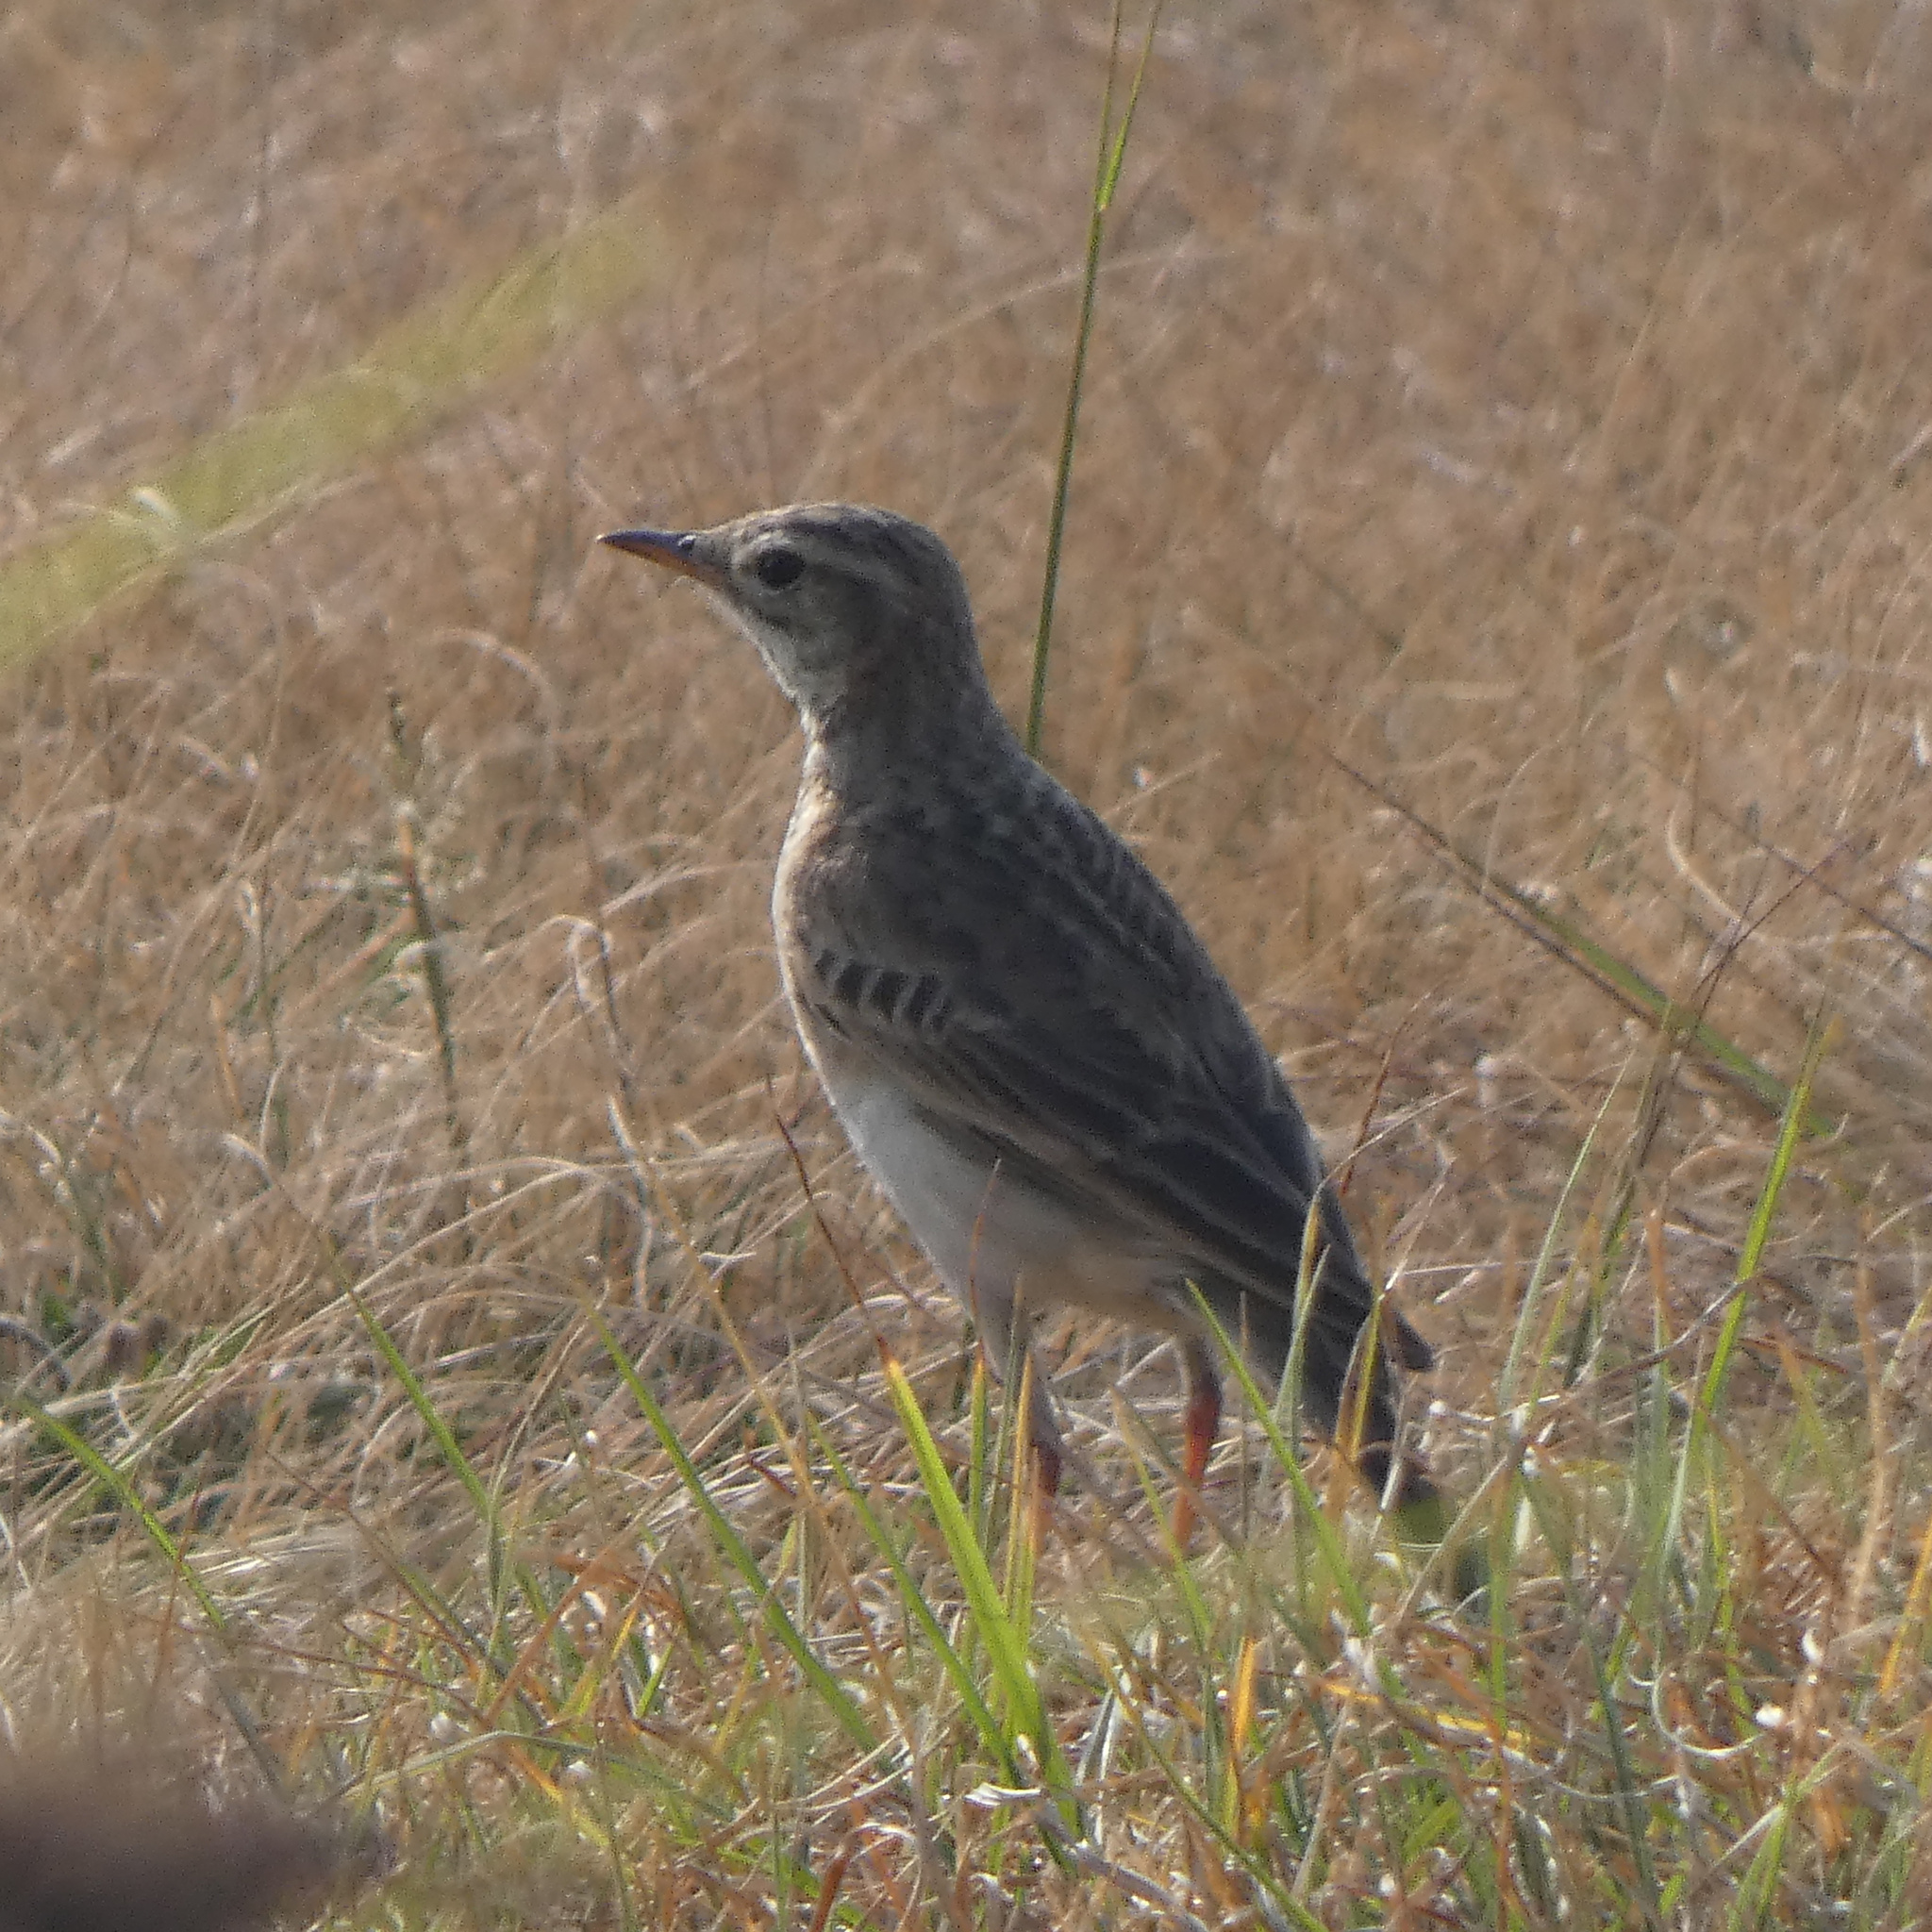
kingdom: Animalia
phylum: Chordata
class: Aves
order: Passeriformes
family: Motacillidae
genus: Anthus
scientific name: Anthus cinnamomeus
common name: African pipit
